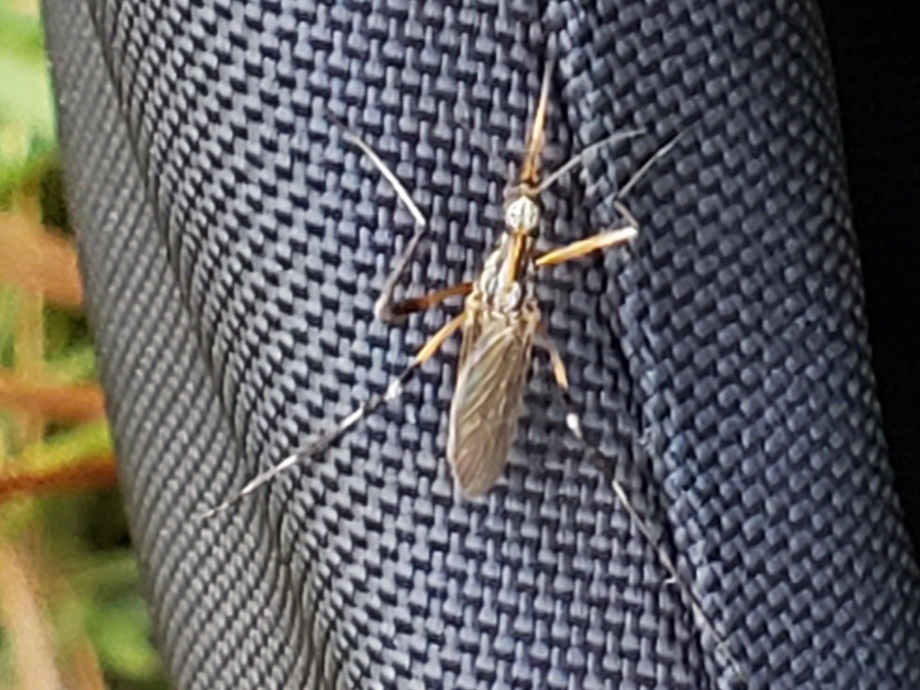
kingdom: Animalia
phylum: Arthropoda
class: Insecta
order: Diptera
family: Culicidae
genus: Psorophora
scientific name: Psorophora ciliata
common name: Gallinipper
